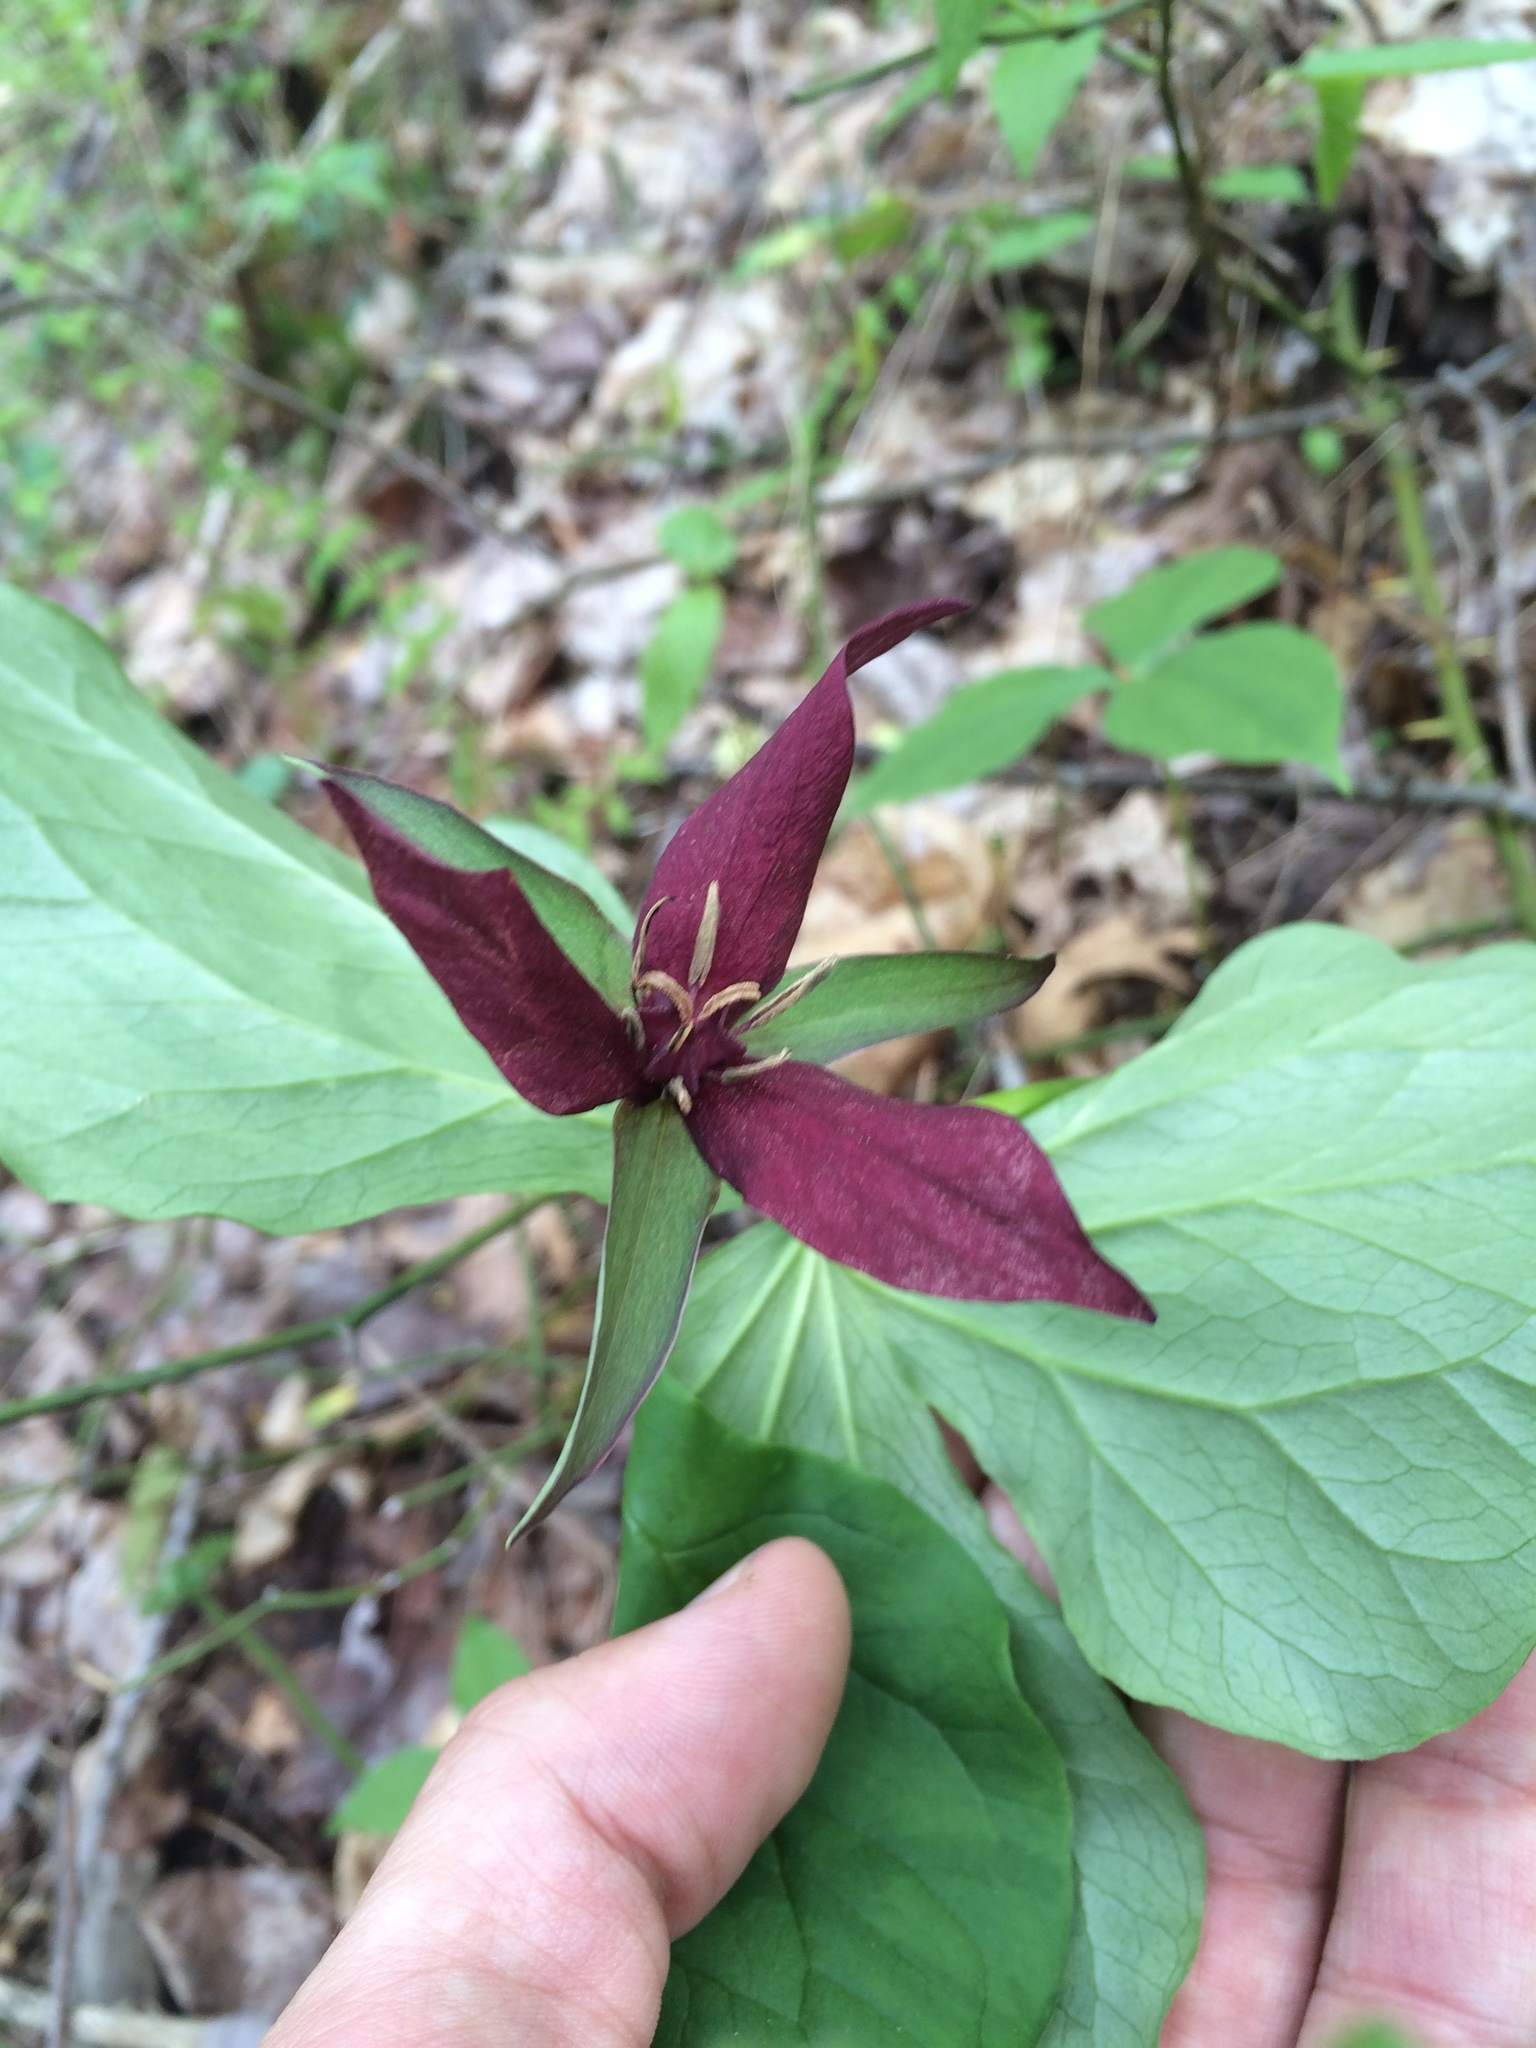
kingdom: Plantae
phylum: Tracheophyta
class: Liliopsida
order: Liliales
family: Melanthiaceae
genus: Trillium
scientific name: Trillium erectum
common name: Purple trillium
